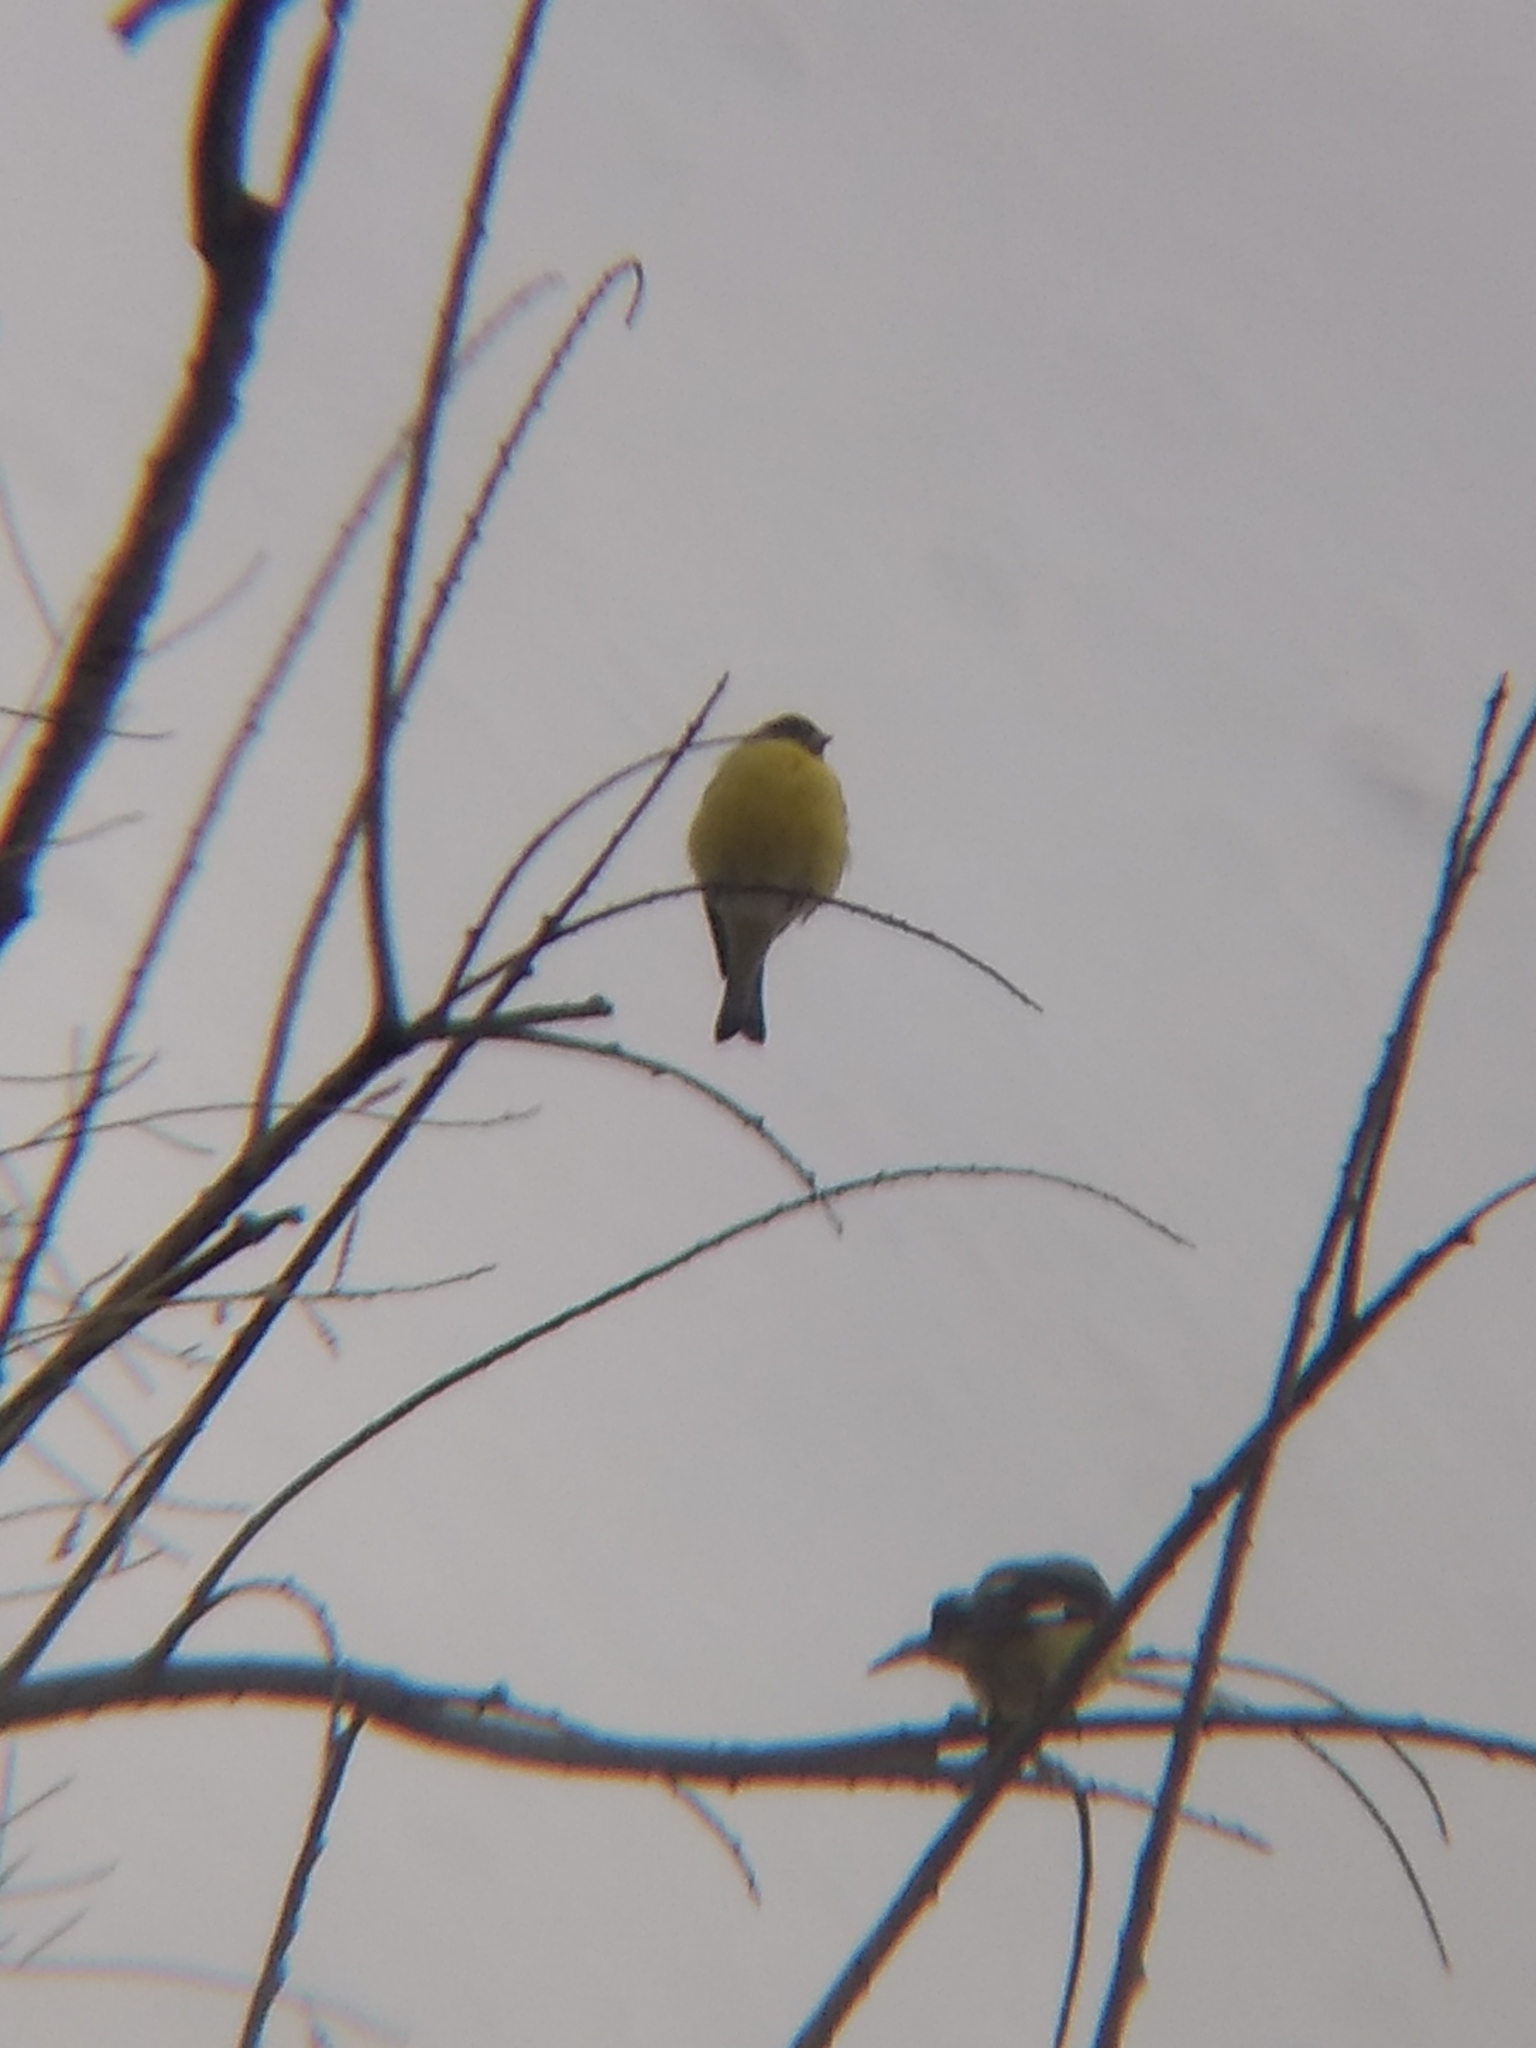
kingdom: Animalia
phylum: Chordata
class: Aves
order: Passeriformes
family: Fringillidae
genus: Spinus
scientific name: Spinus psaltria
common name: Lesser goldfinch
